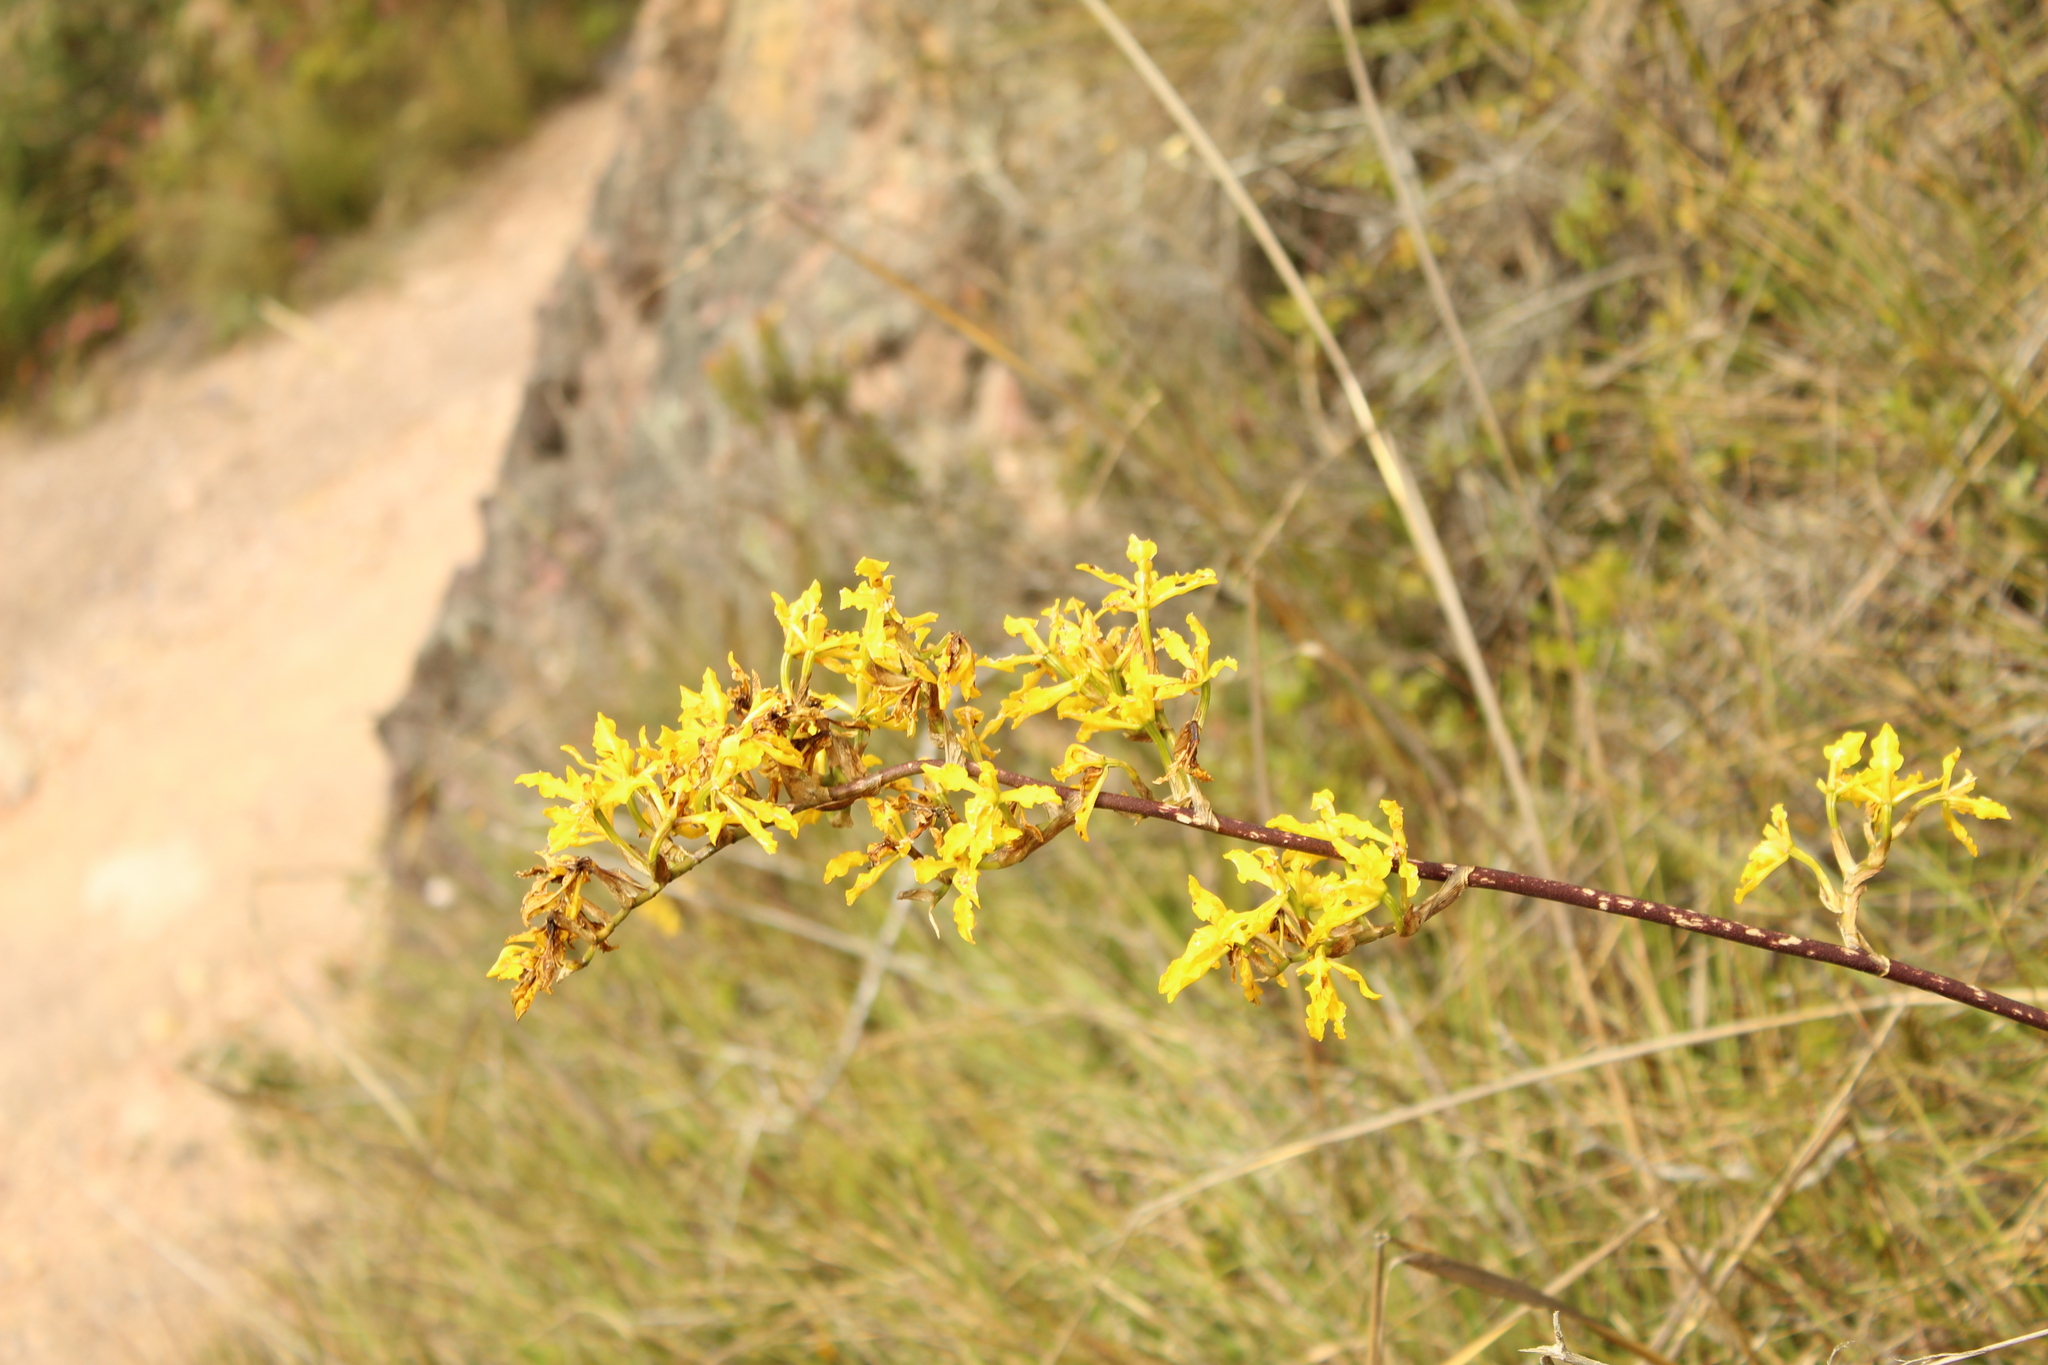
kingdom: Plantae
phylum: Tracheophyta
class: Liliopsida
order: Asparagales
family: Orchidaceae
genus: Cyrtochilum
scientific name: Cyrtochilum revolutum
